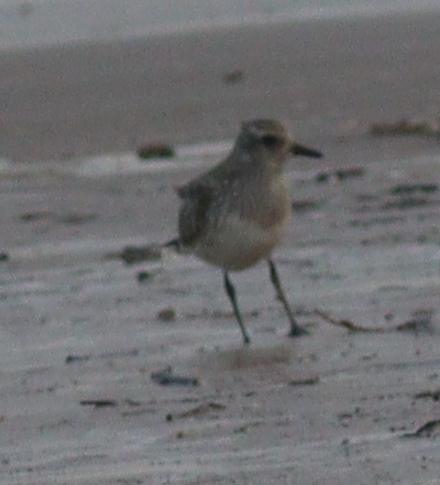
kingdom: Animalia
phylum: Chordata
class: Aves
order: Charadriiformes
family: Charadriidae
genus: Pluvialis
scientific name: Pluvialis squatarola
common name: Grey plover
